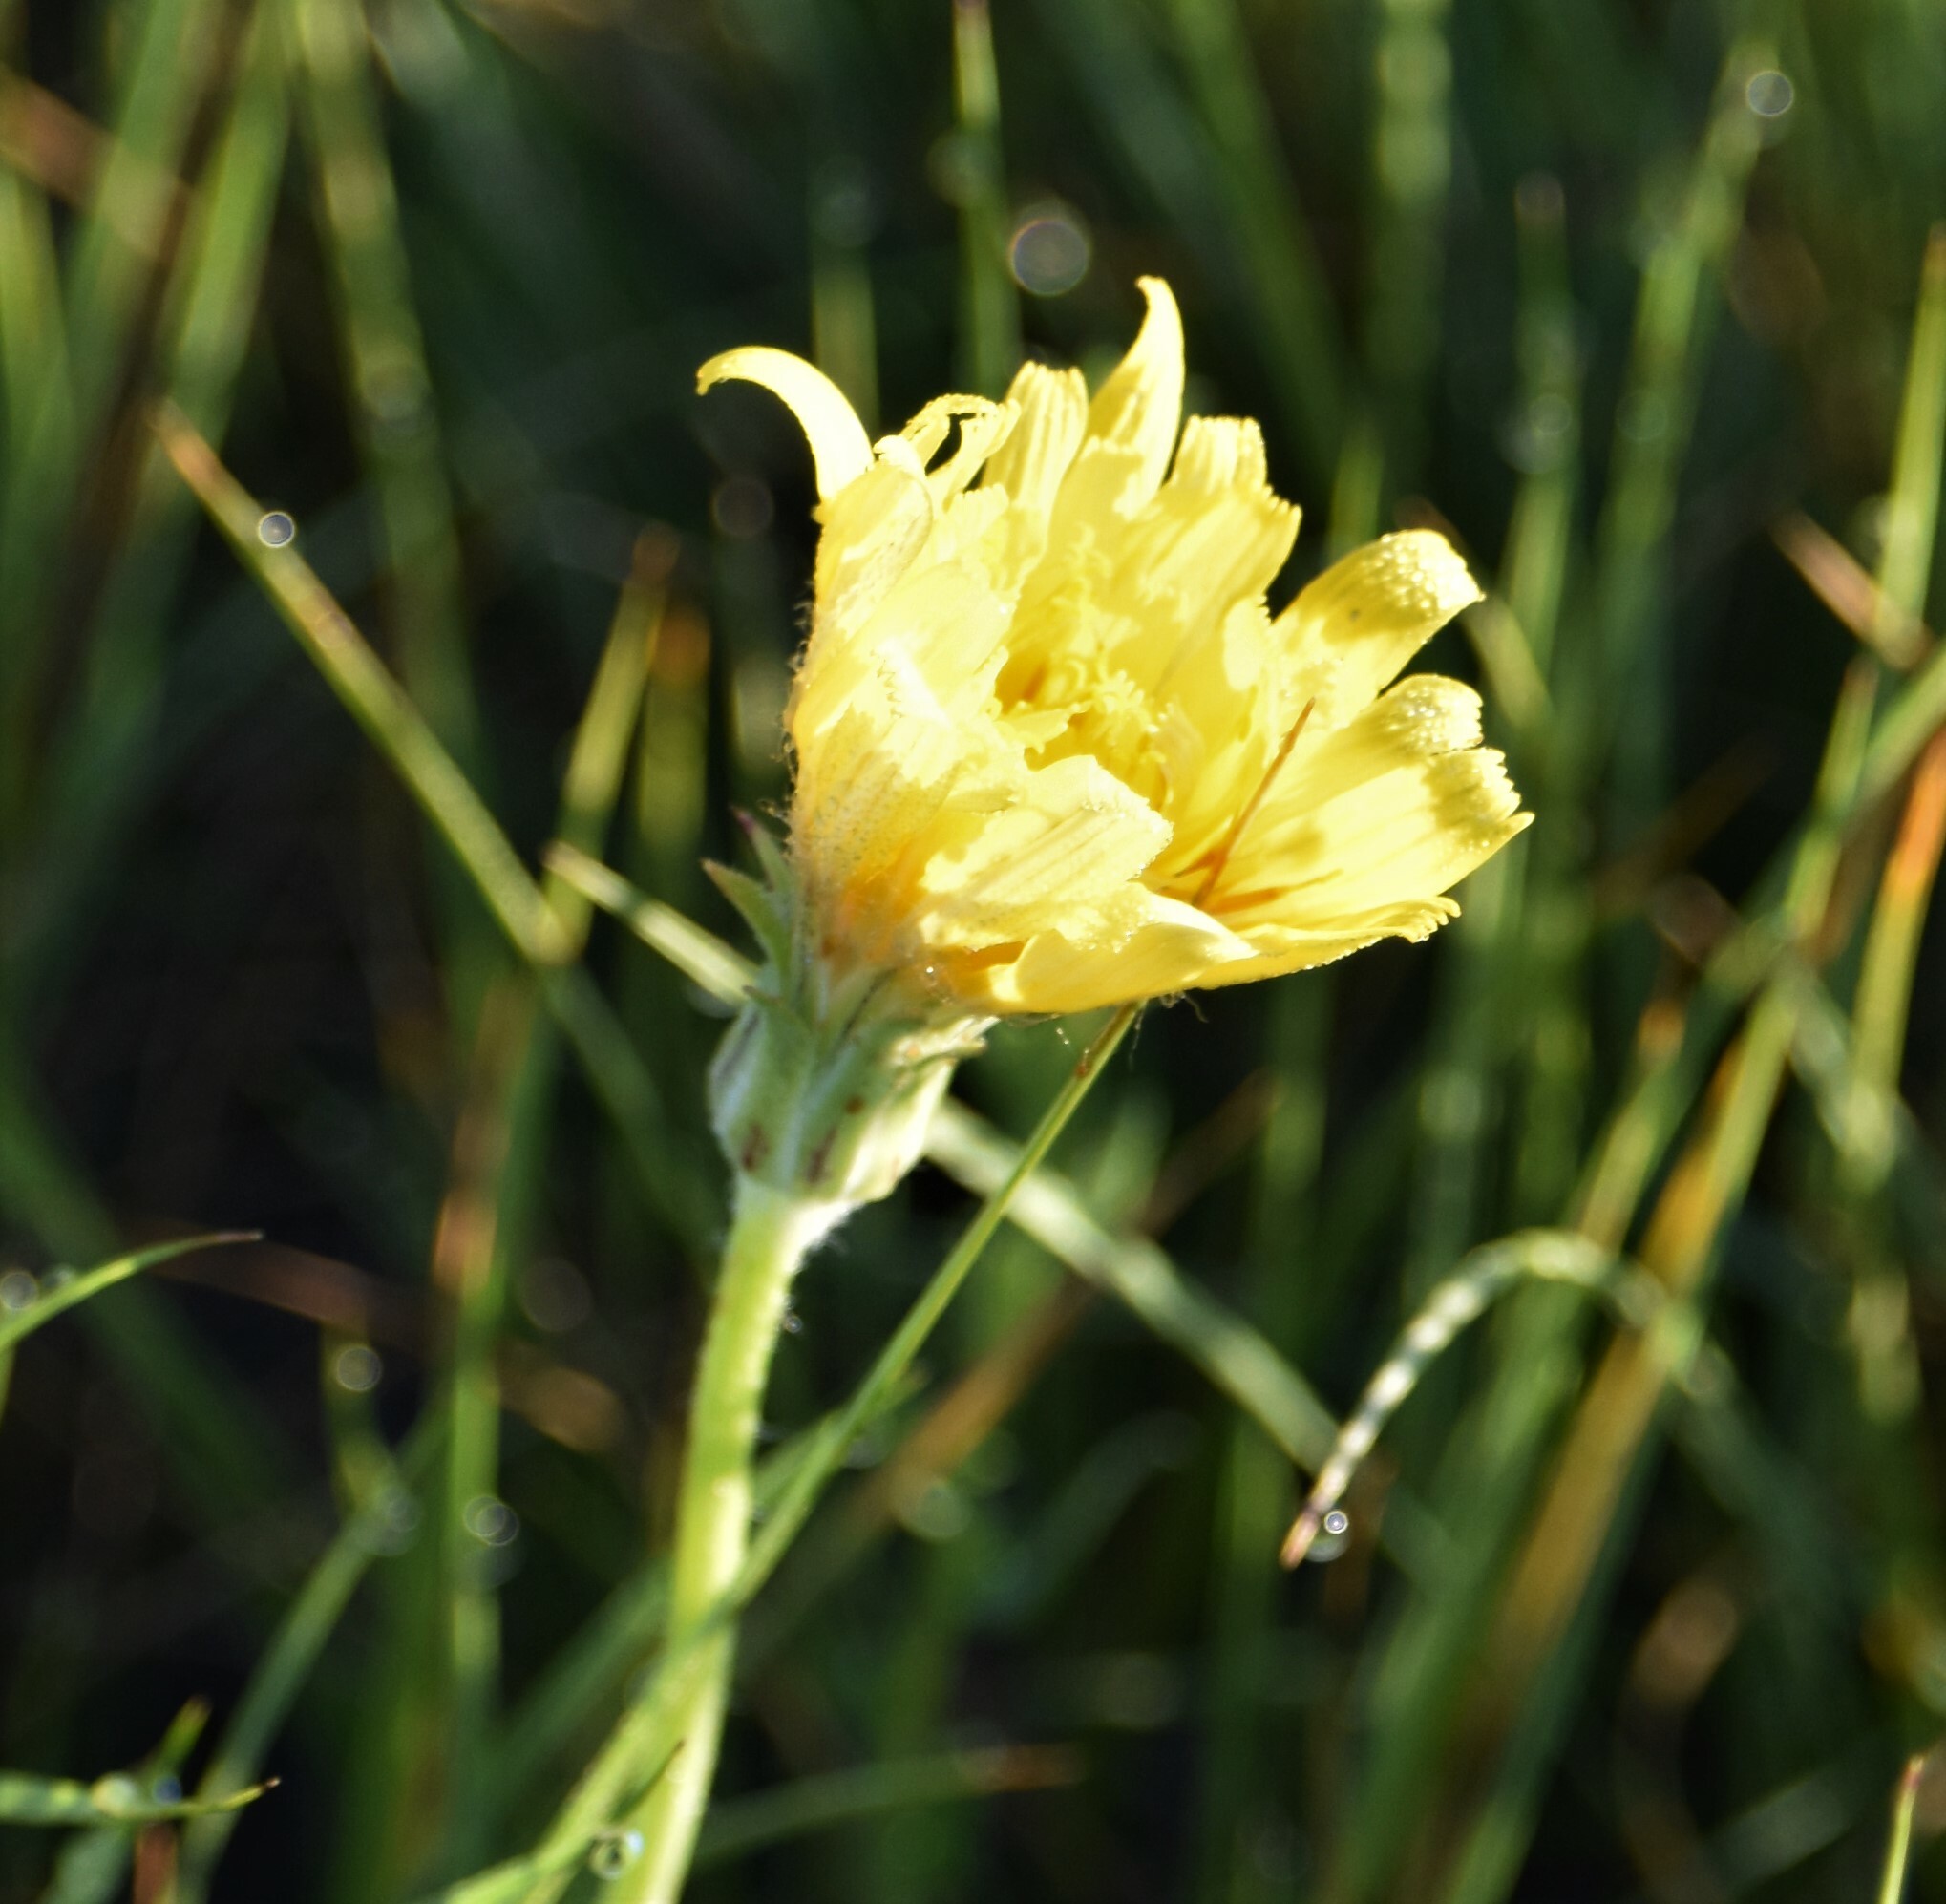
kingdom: Plantae
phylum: Tracheophyta
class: Magnoliopsida
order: Asterales
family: Asteraceae
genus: Agoseris
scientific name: Agoseris glauca
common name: Prairie agoseris
